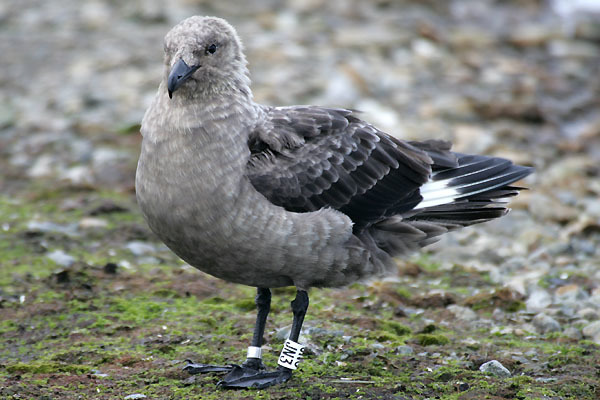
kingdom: Animalia
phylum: Chordata
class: Aves
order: Charadriiformes
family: Stercorariidae
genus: Stercorarius
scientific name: Stercorarius maccormicki
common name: South polar skua
